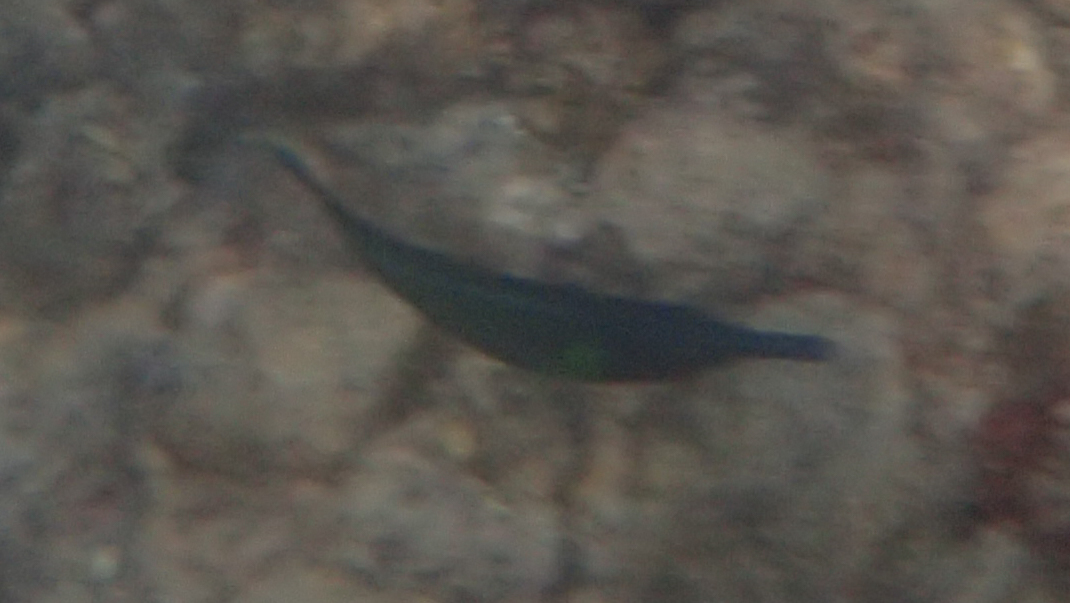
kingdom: Animalia
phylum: Chordata
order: Perciformes
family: Labridae
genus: Gomphosus
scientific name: Gomphosus varius
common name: Bird wrasse
